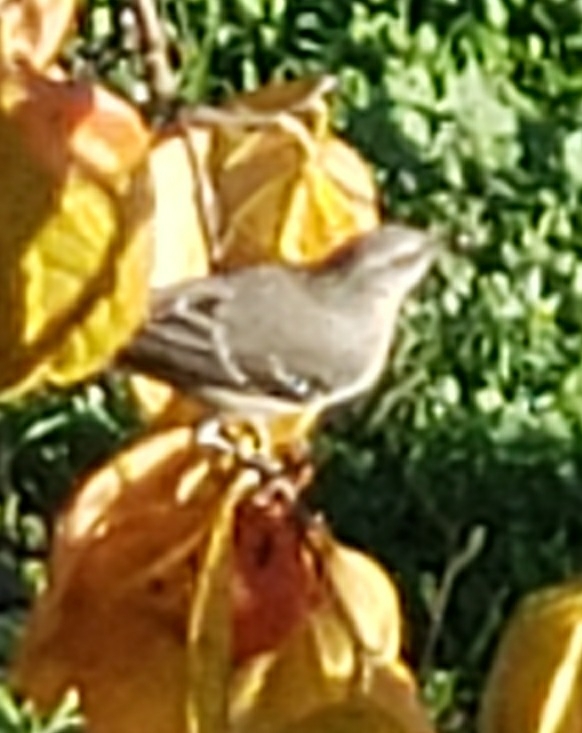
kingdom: Animalia
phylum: Chordata
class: Aves
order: Passeriformes
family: Mimidae
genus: Mimus
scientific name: Mimus polyglottos
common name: Northern mockingbird
